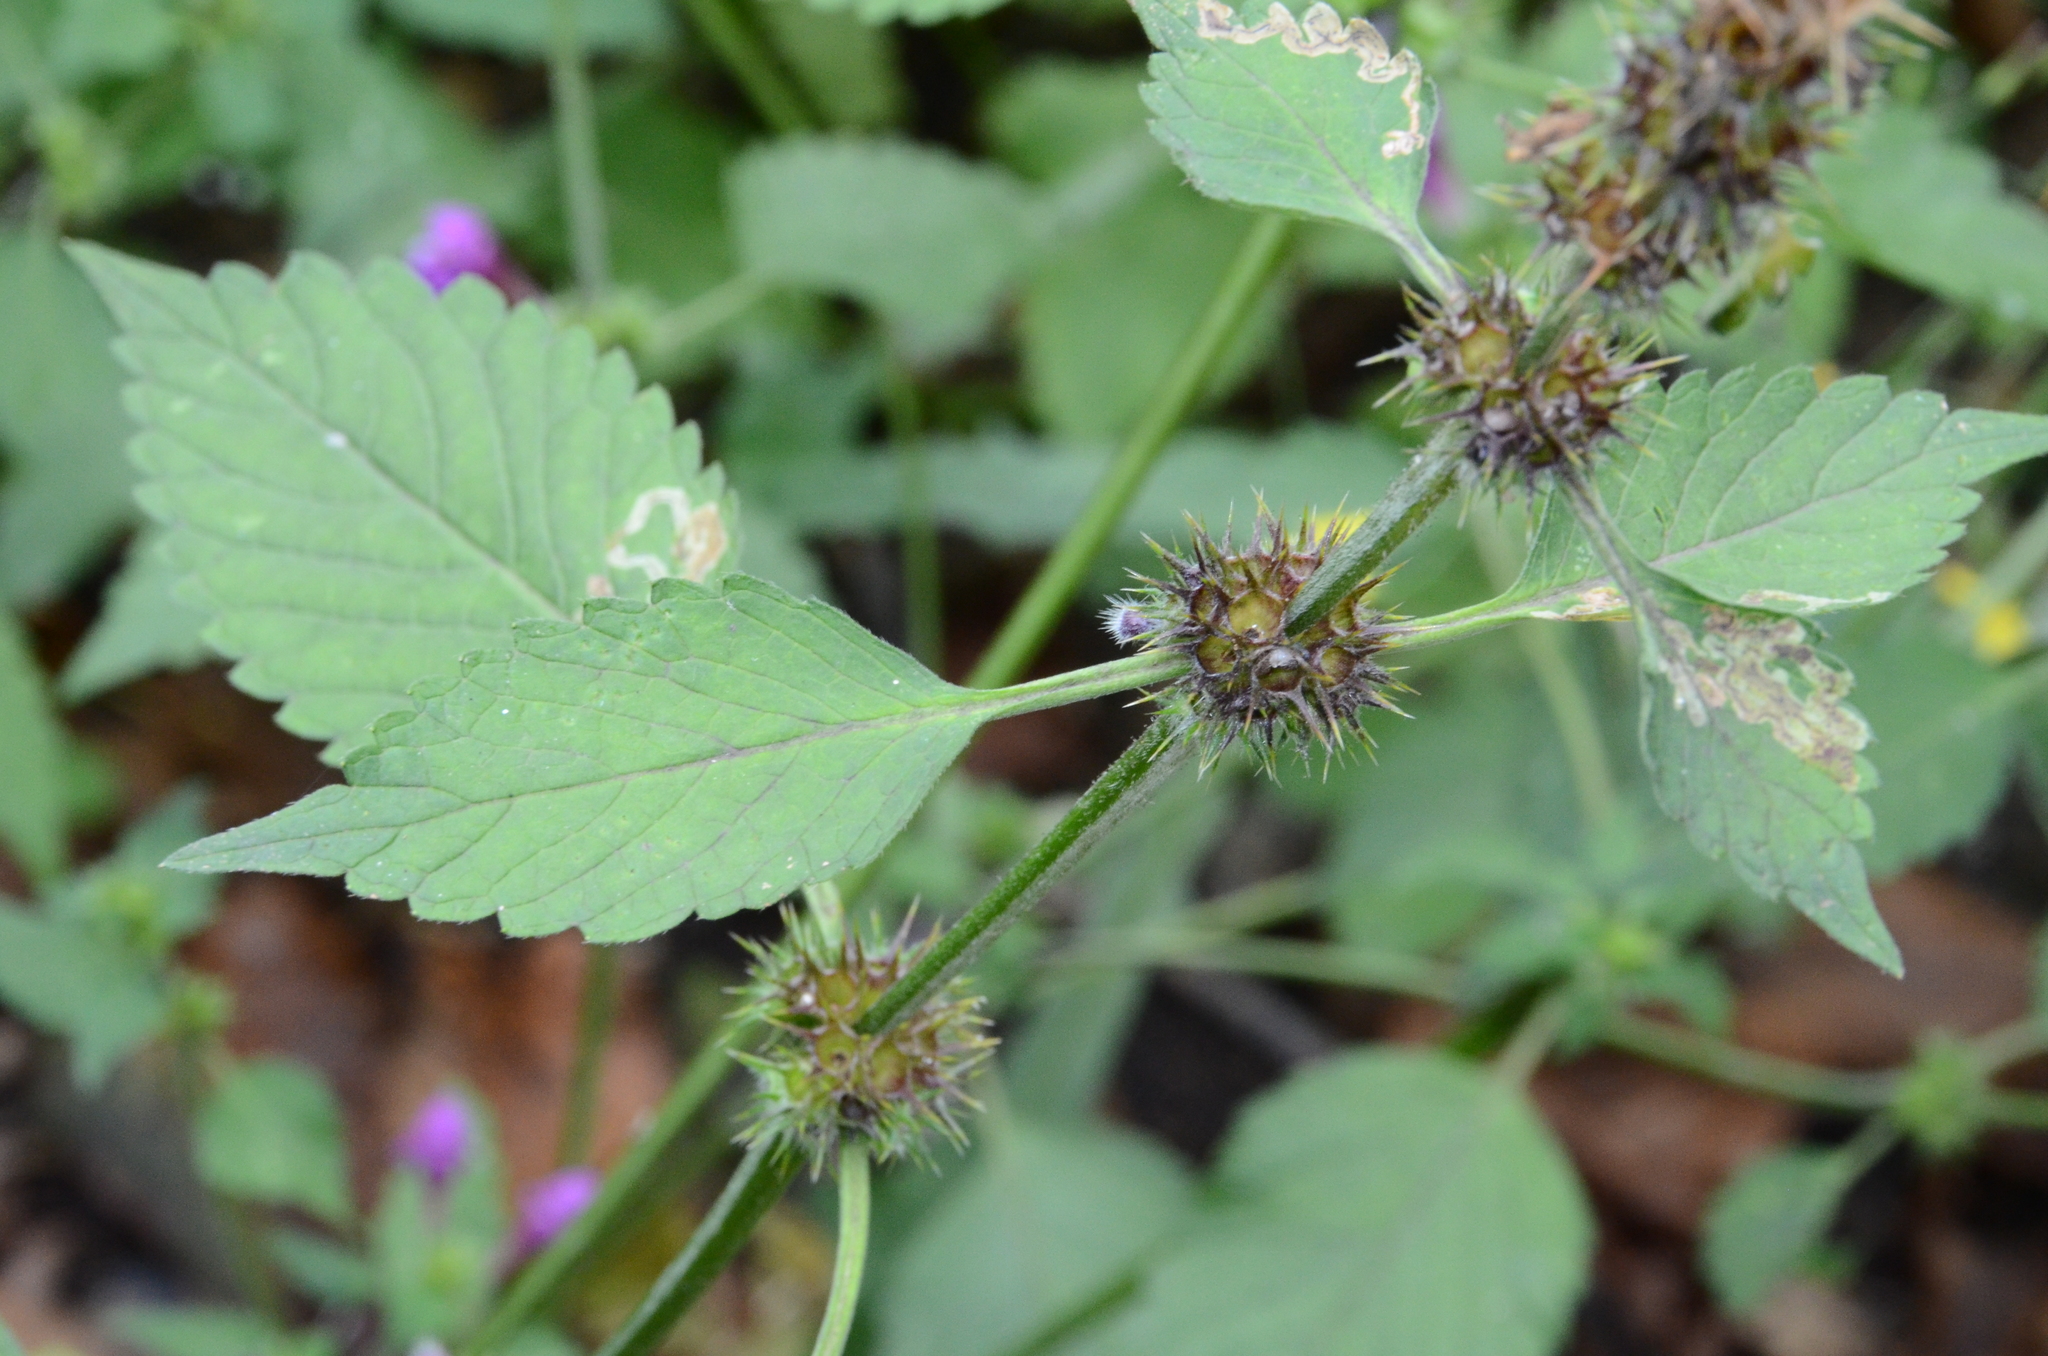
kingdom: Plantae
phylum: Tracheophyta
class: Magnoliopsida
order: Lamiales
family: Lamiaceae
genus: Galeopsis
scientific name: Galeopsis pubescens
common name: Downy hemp-nettle
